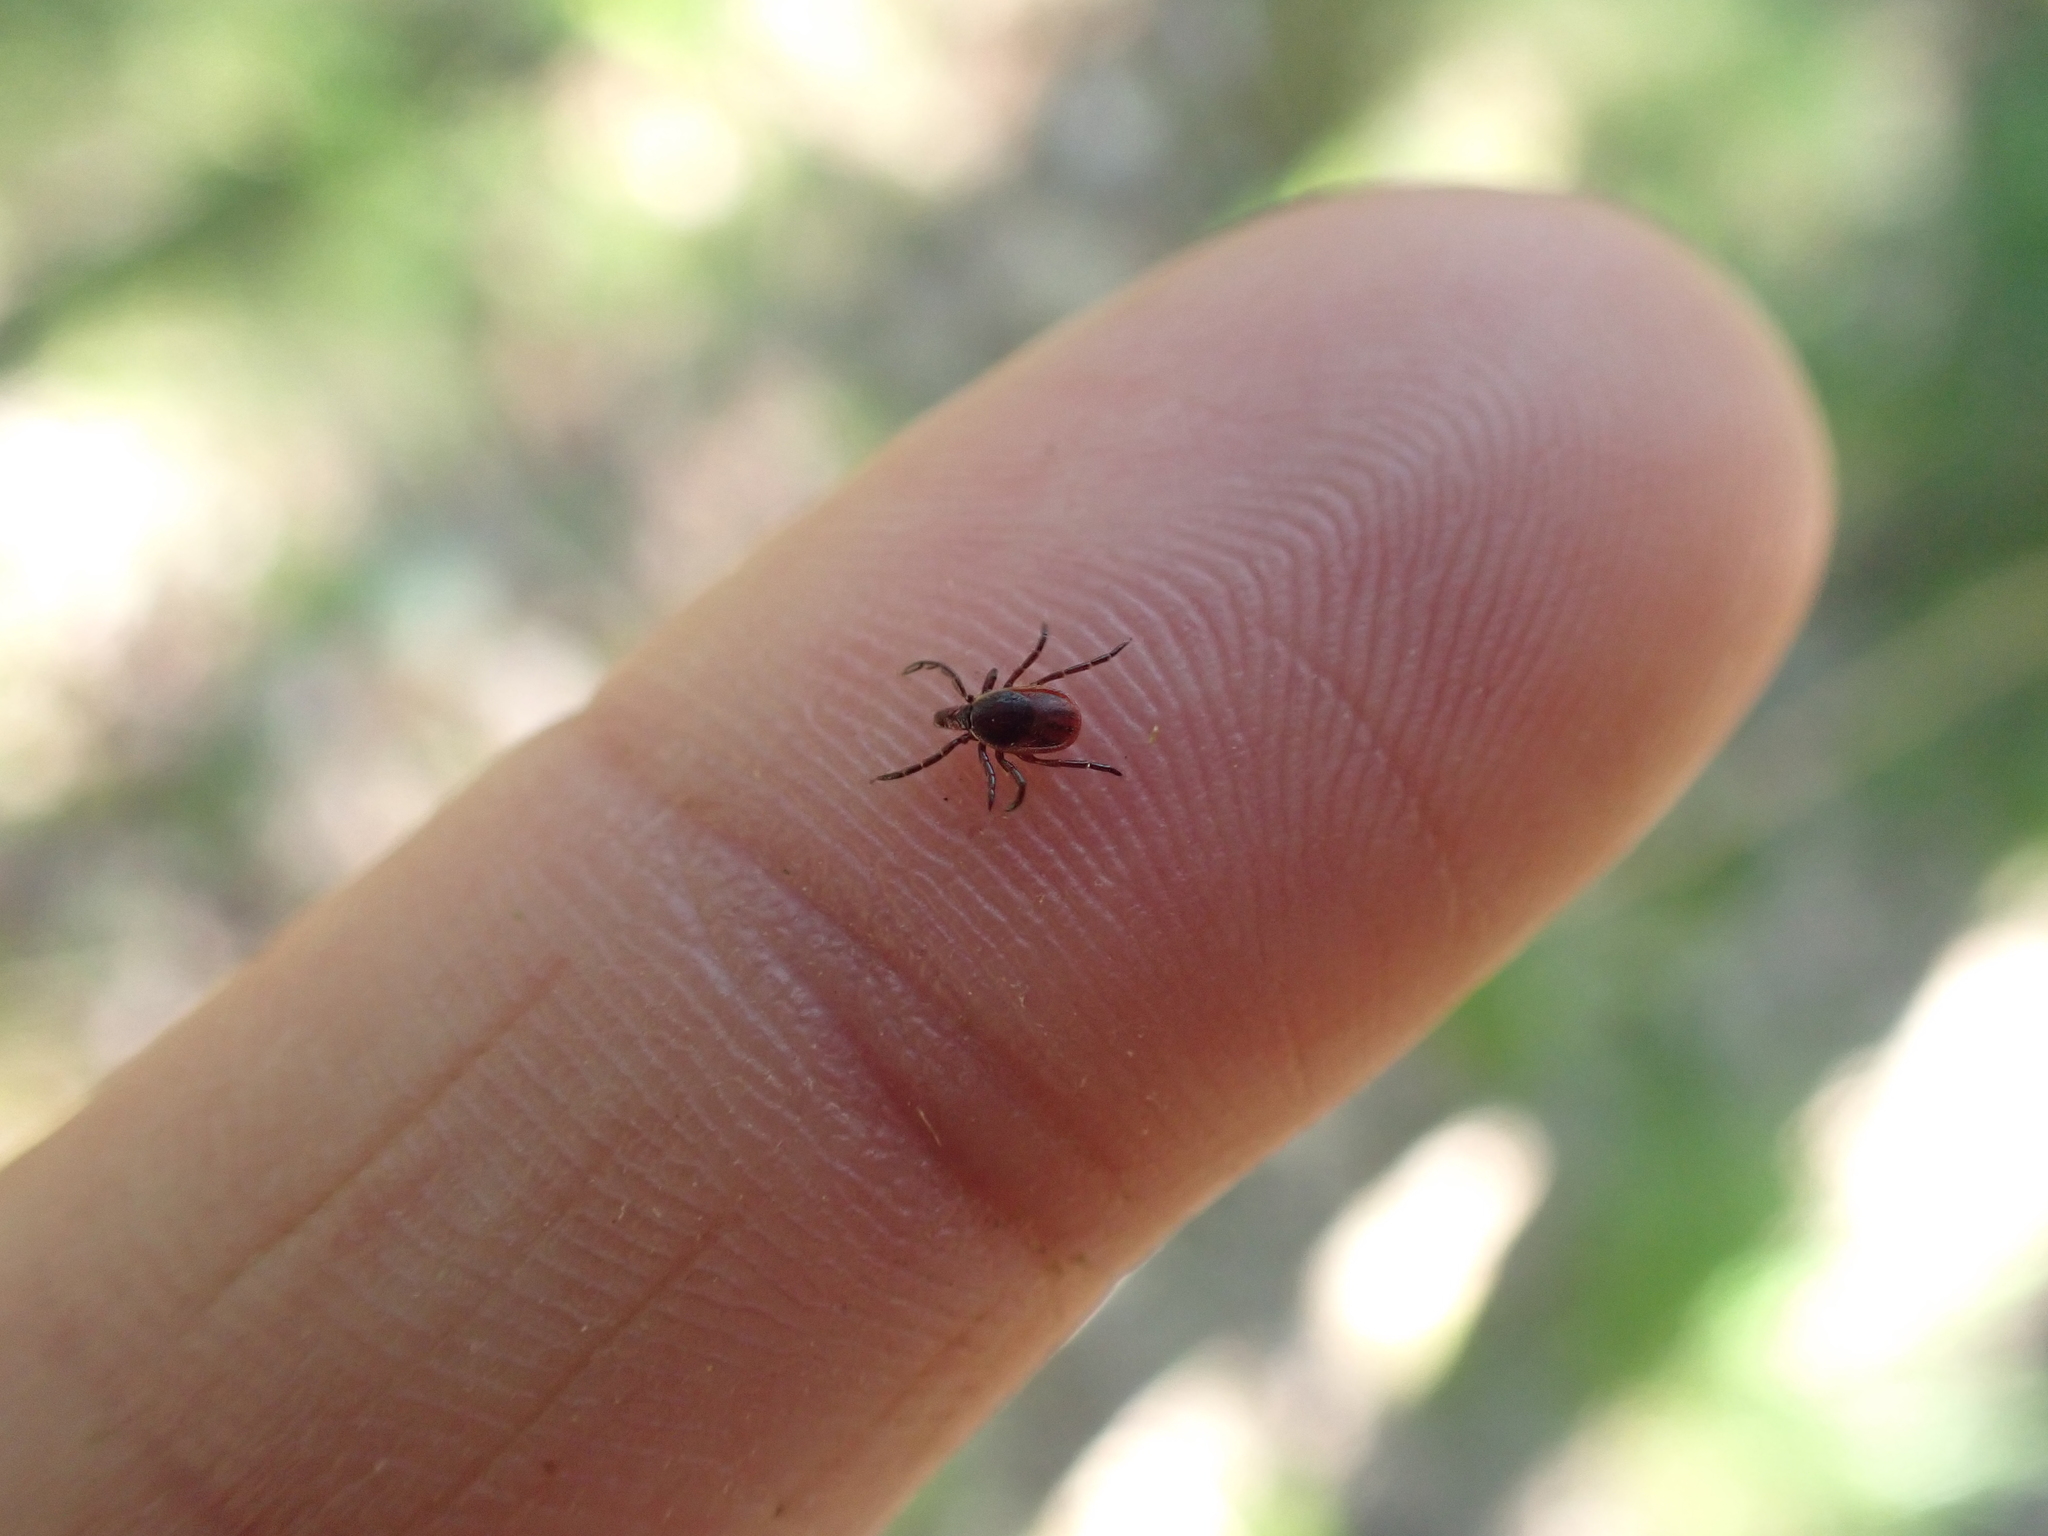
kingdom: Animalia
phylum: Arthropoda
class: Arachnida
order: Ixodida
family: Ixodidae
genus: Ixodes
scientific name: Ixodes scapularis
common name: Black legged tick
